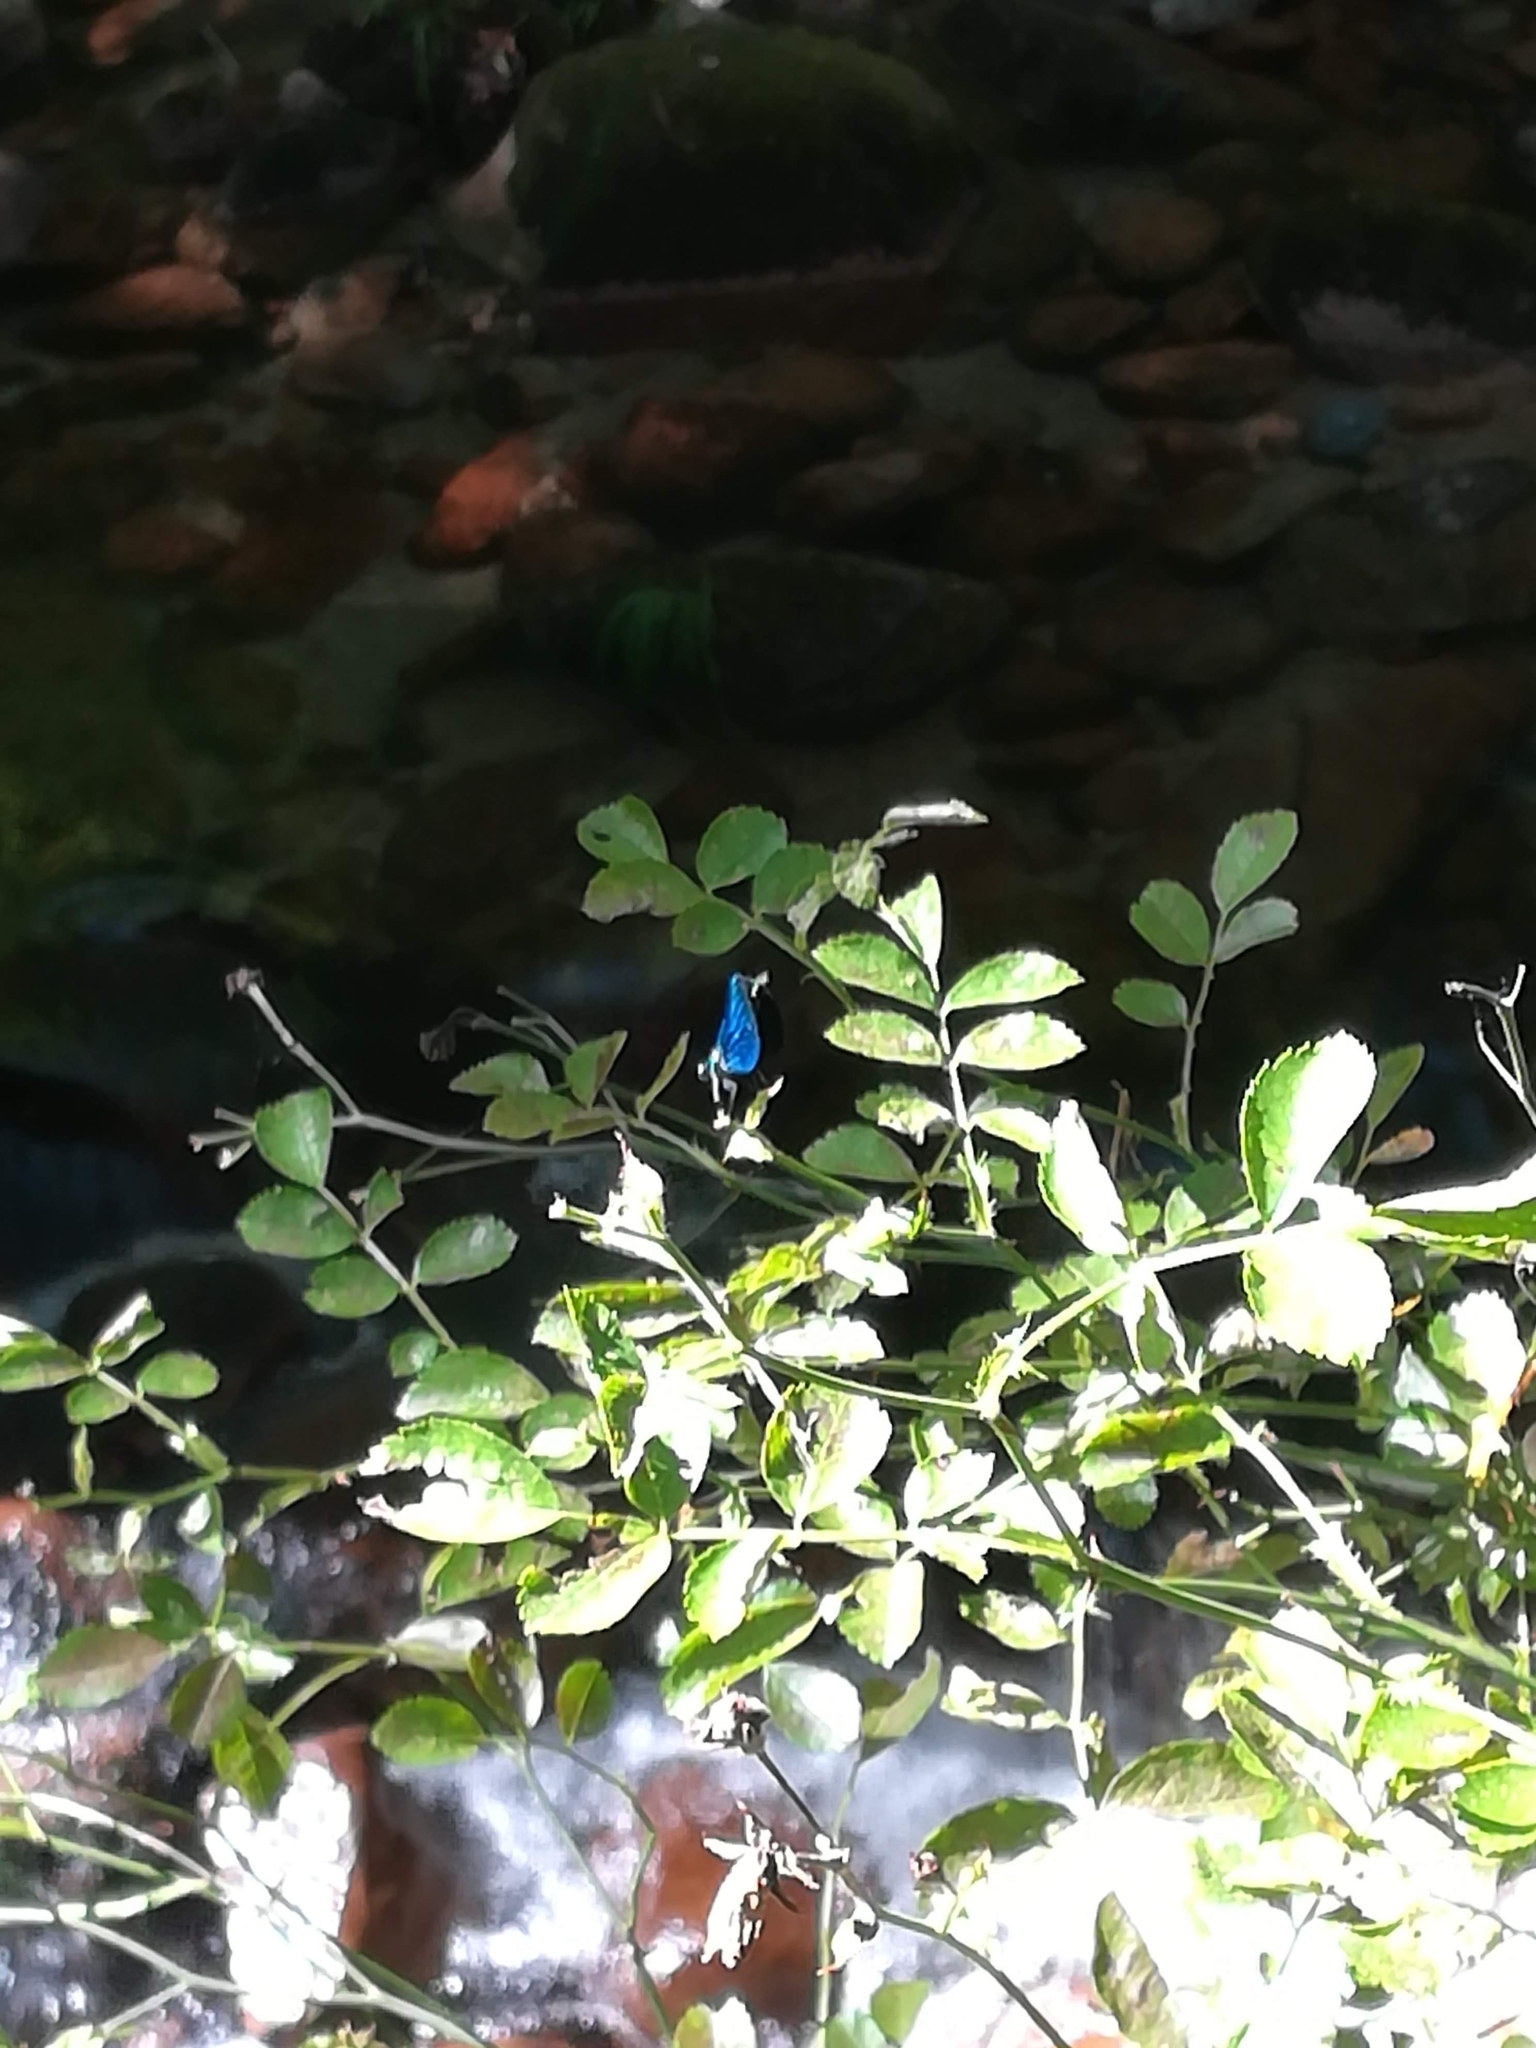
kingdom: Animalia
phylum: Arthropoda
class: Insecta
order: Odonata
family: Calopterygidae
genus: Calopteryx
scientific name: Calopteryx virgo
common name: Beautiful demoiselle
